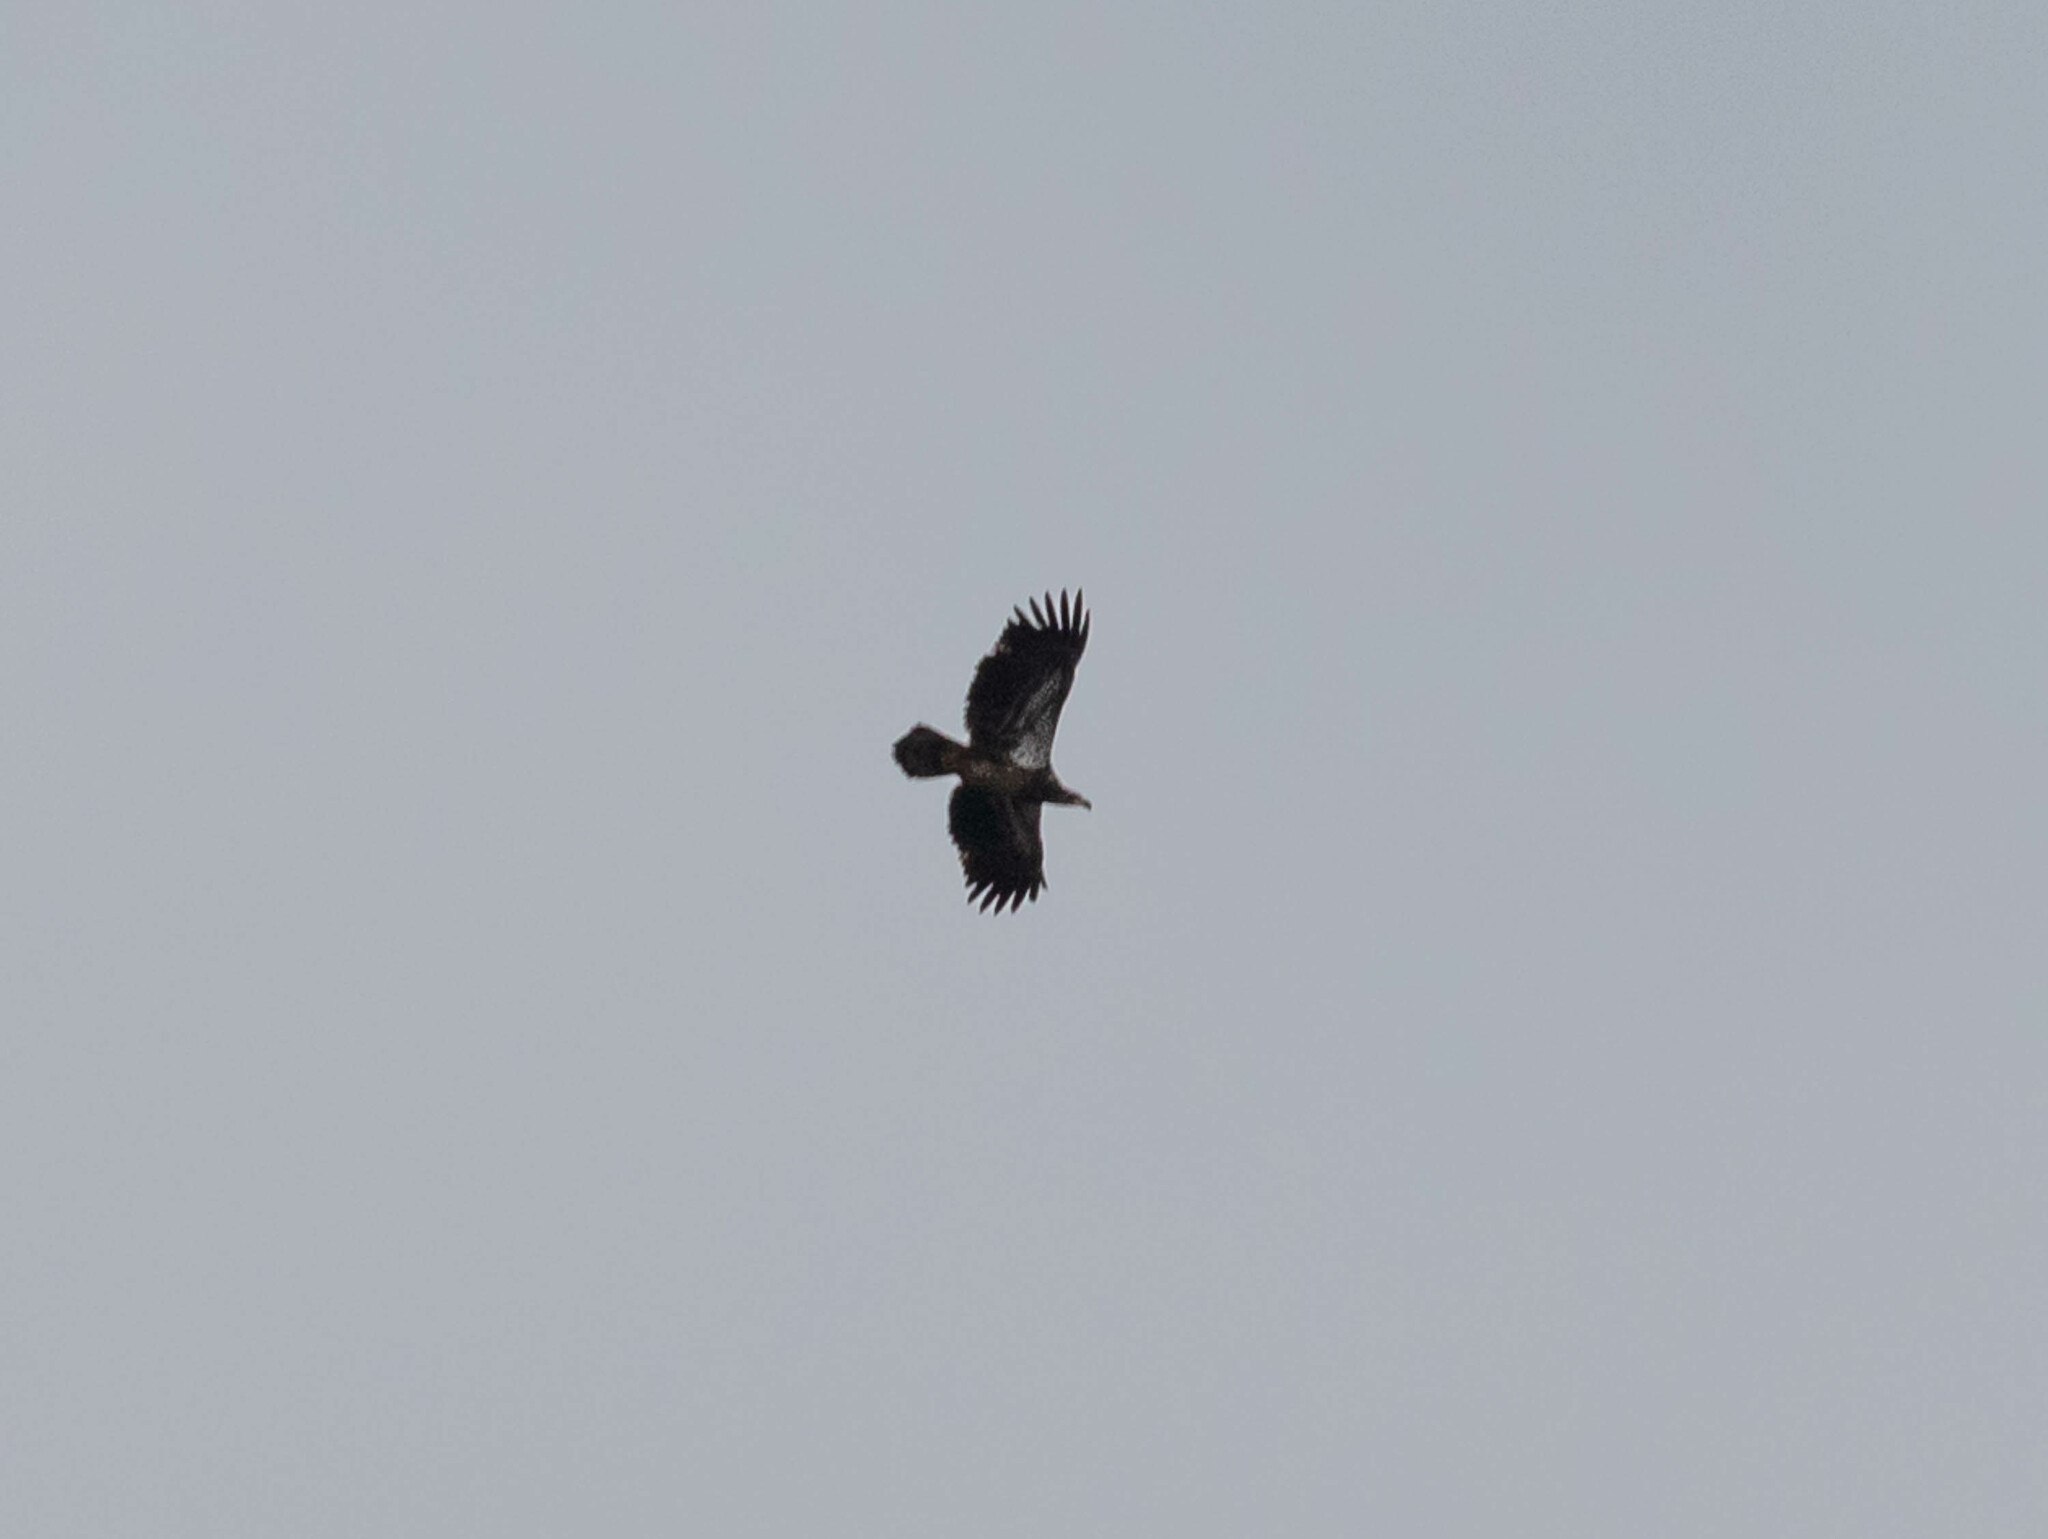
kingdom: Animalia
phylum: Chordata
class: Aves
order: Accipitriformes
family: Accipitridae
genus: Haliaeetus
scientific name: Haliaeetus leucocephalus
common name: Bald eagle
